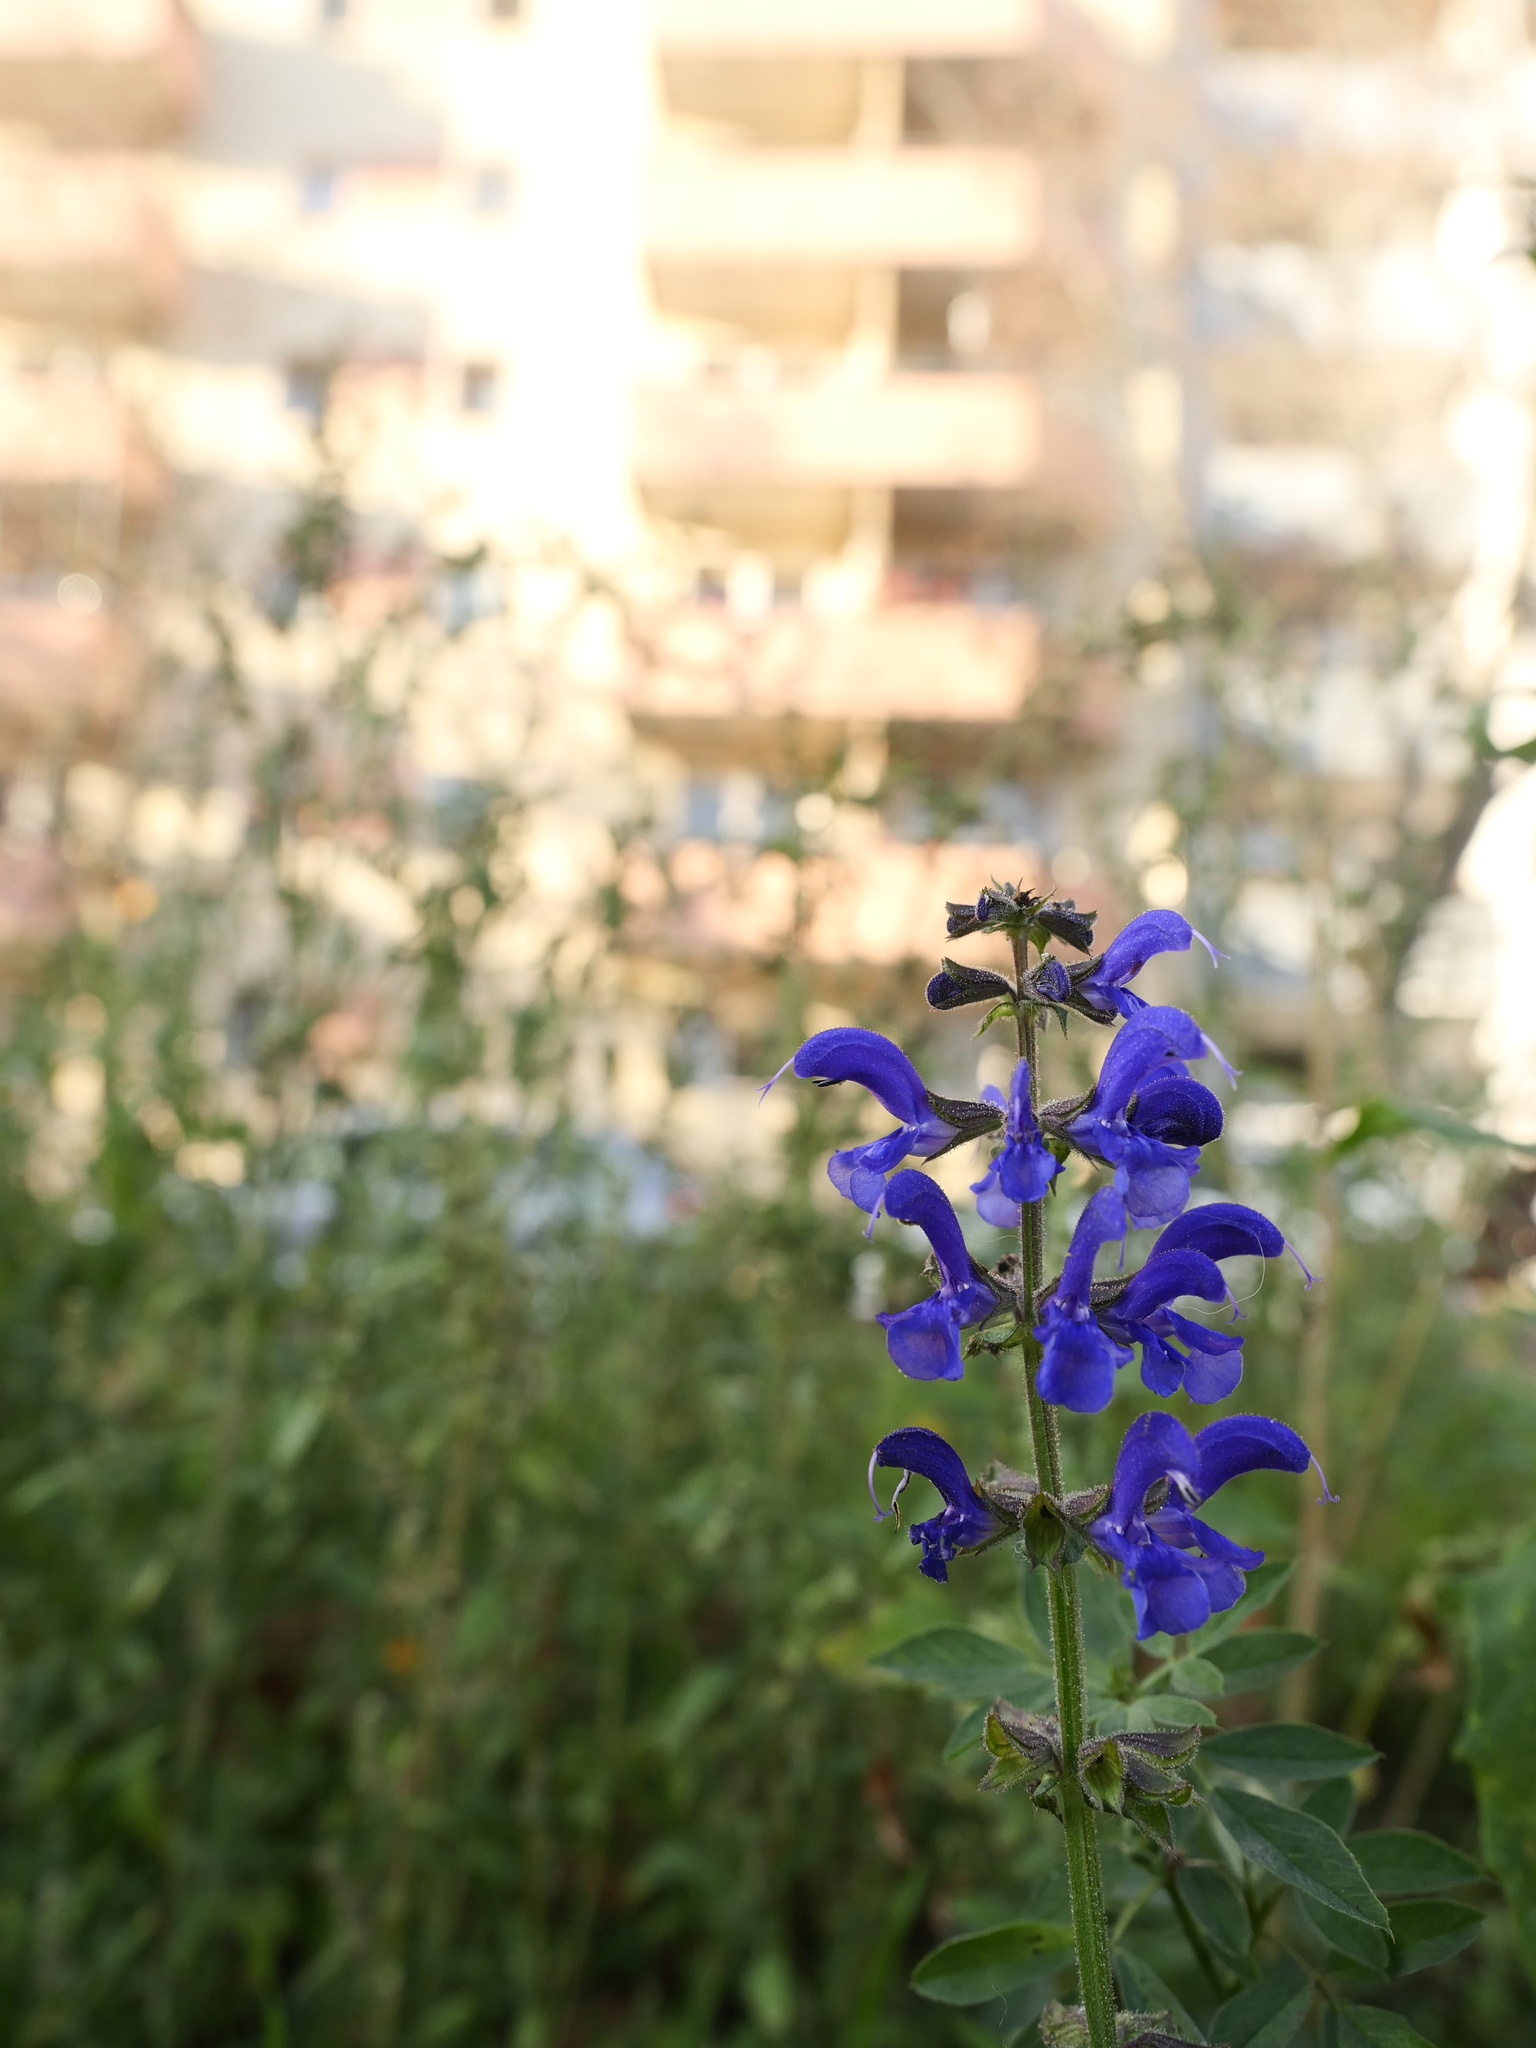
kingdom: Plantae
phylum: Tracheophyta
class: Magnoliopsida
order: Lamiales
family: Lamiaceae
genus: Salvia
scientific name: Salvia pratensis
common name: Meadow sage
